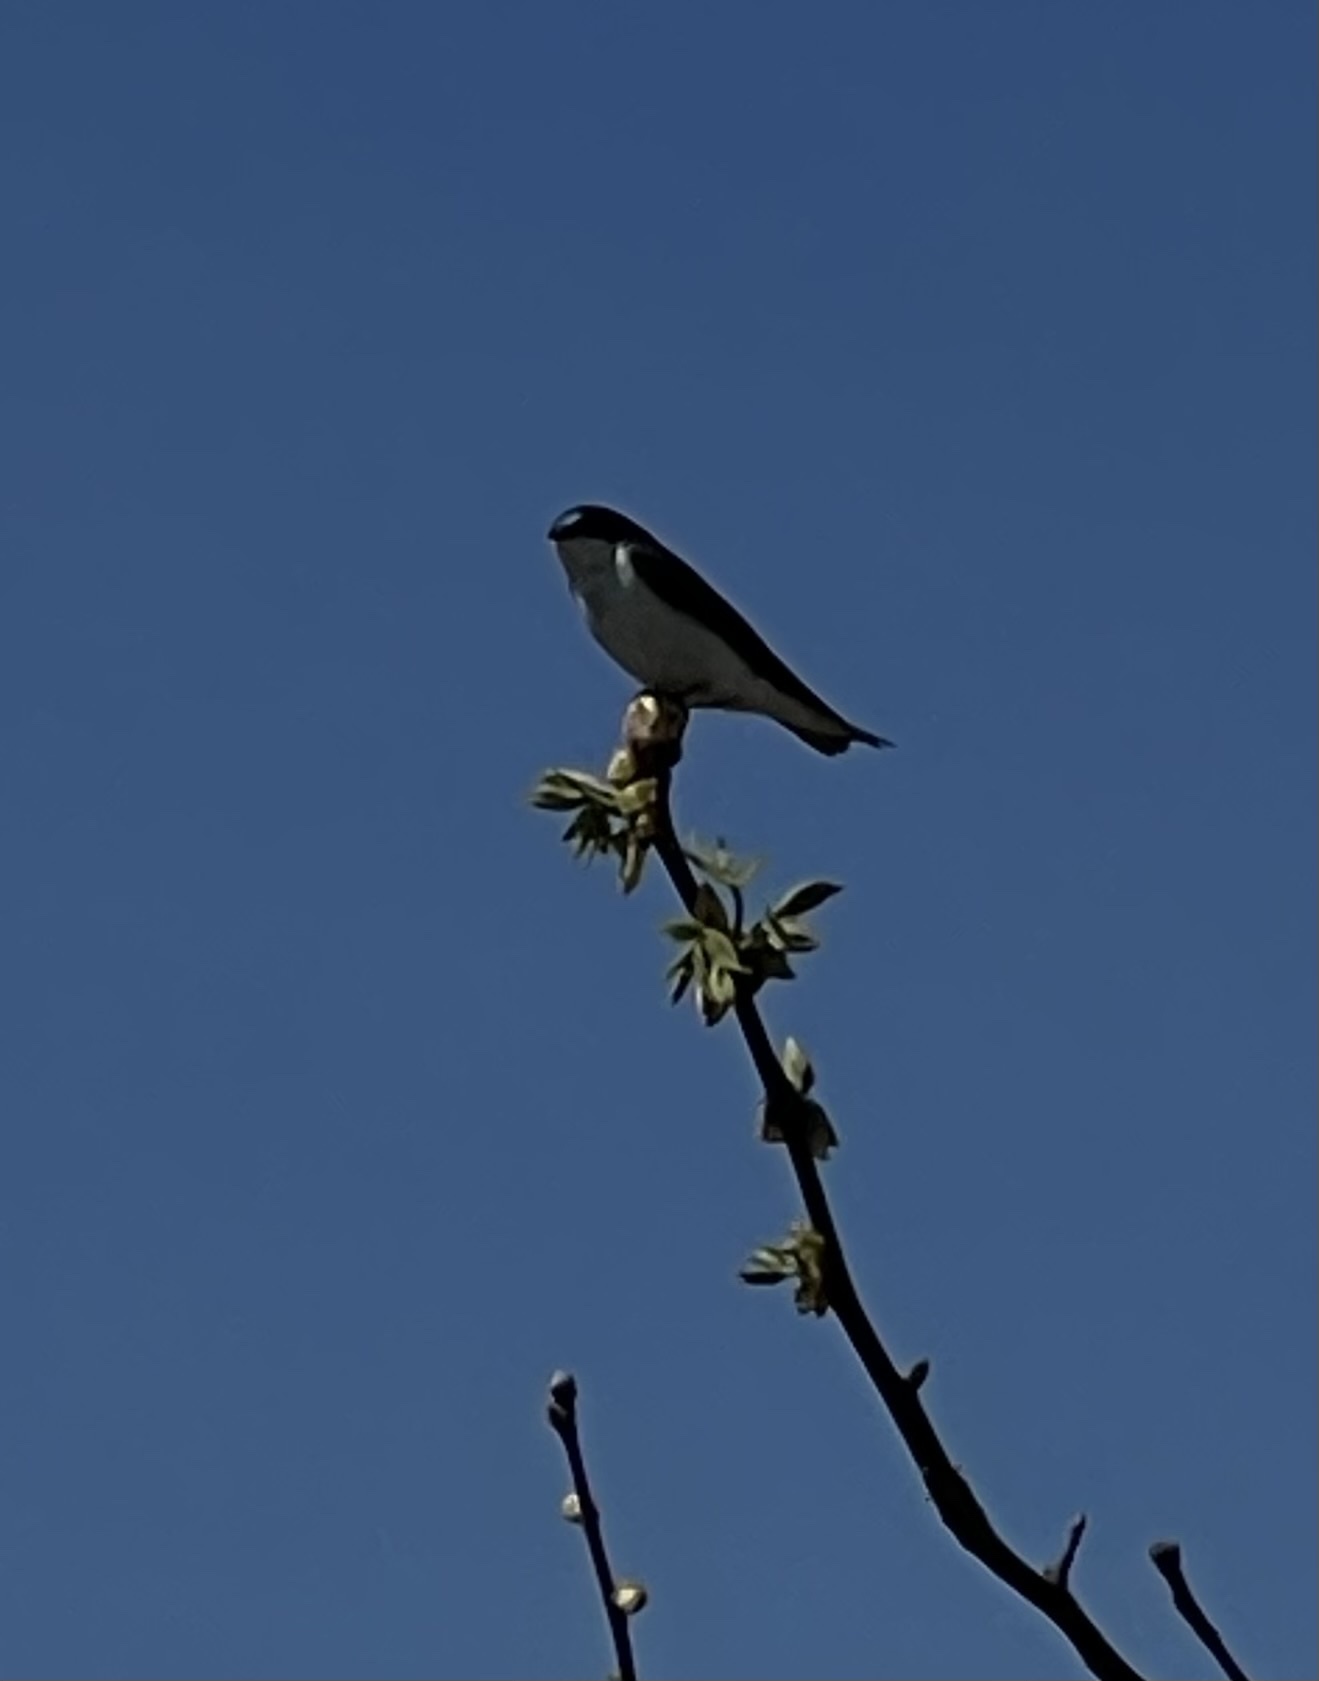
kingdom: Animalia
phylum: Chordata
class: Aves
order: Passeriformes
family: Hirundinidae
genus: Tachycineta
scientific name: Tachycineta bicolor
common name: Tree swallow
